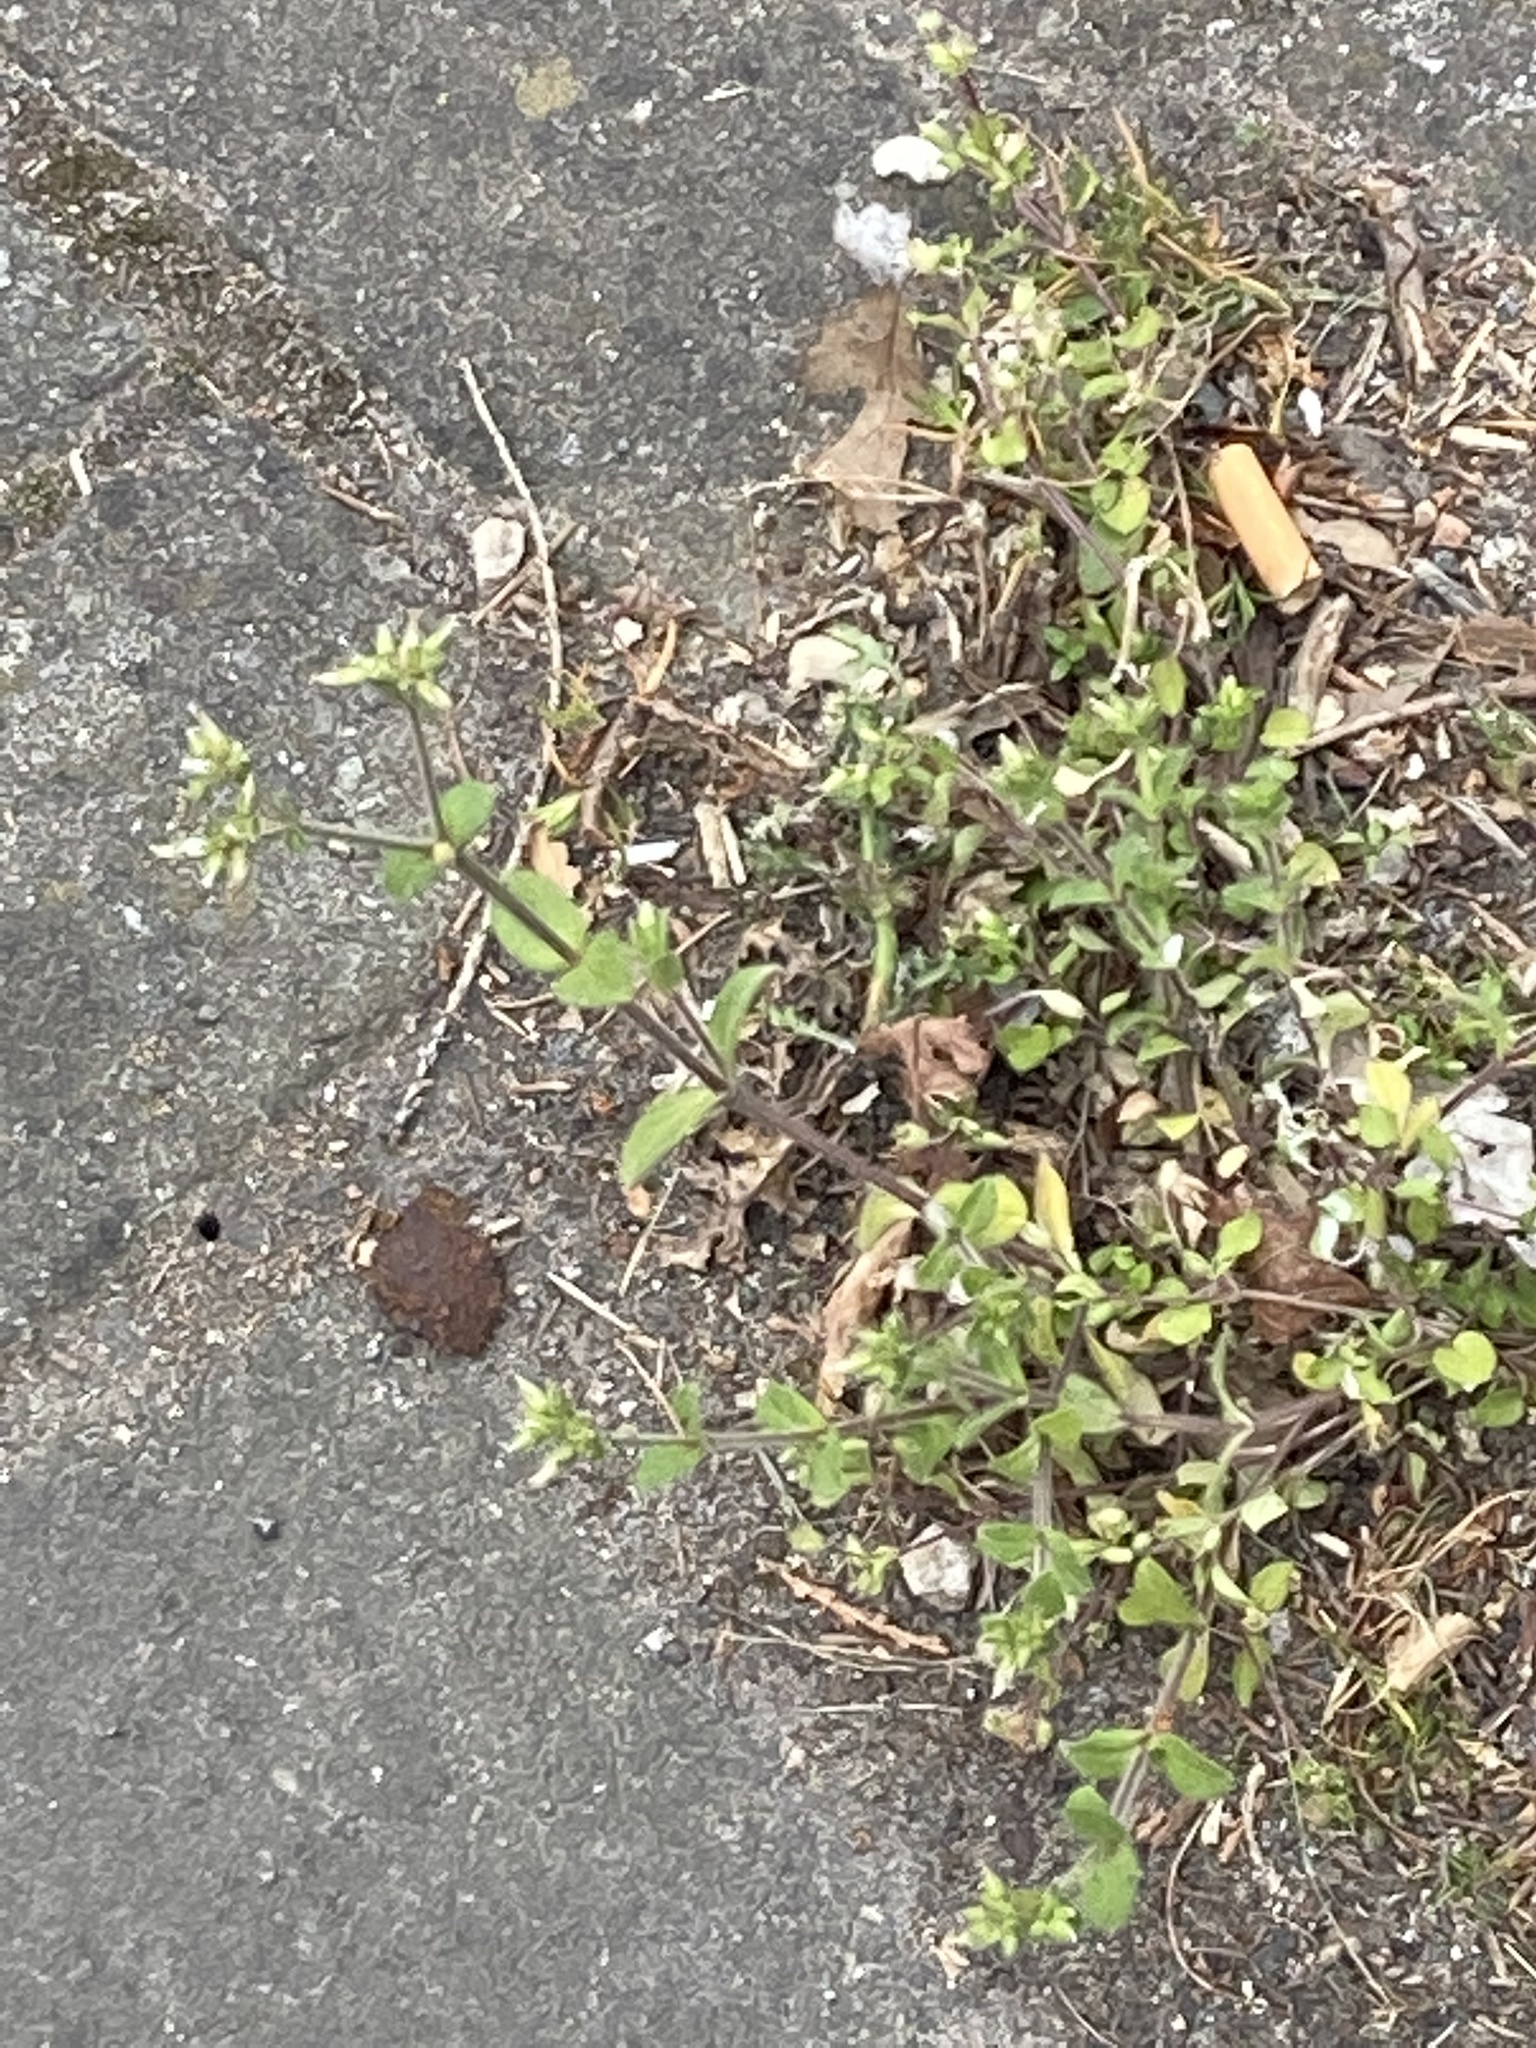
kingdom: Plantae
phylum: Tracheophyta
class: Magnoliopsida
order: Caryophyllales
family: Caryophyllaceae
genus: Cerastium
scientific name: Cerastium glomeratum
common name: Sticky chickweed
